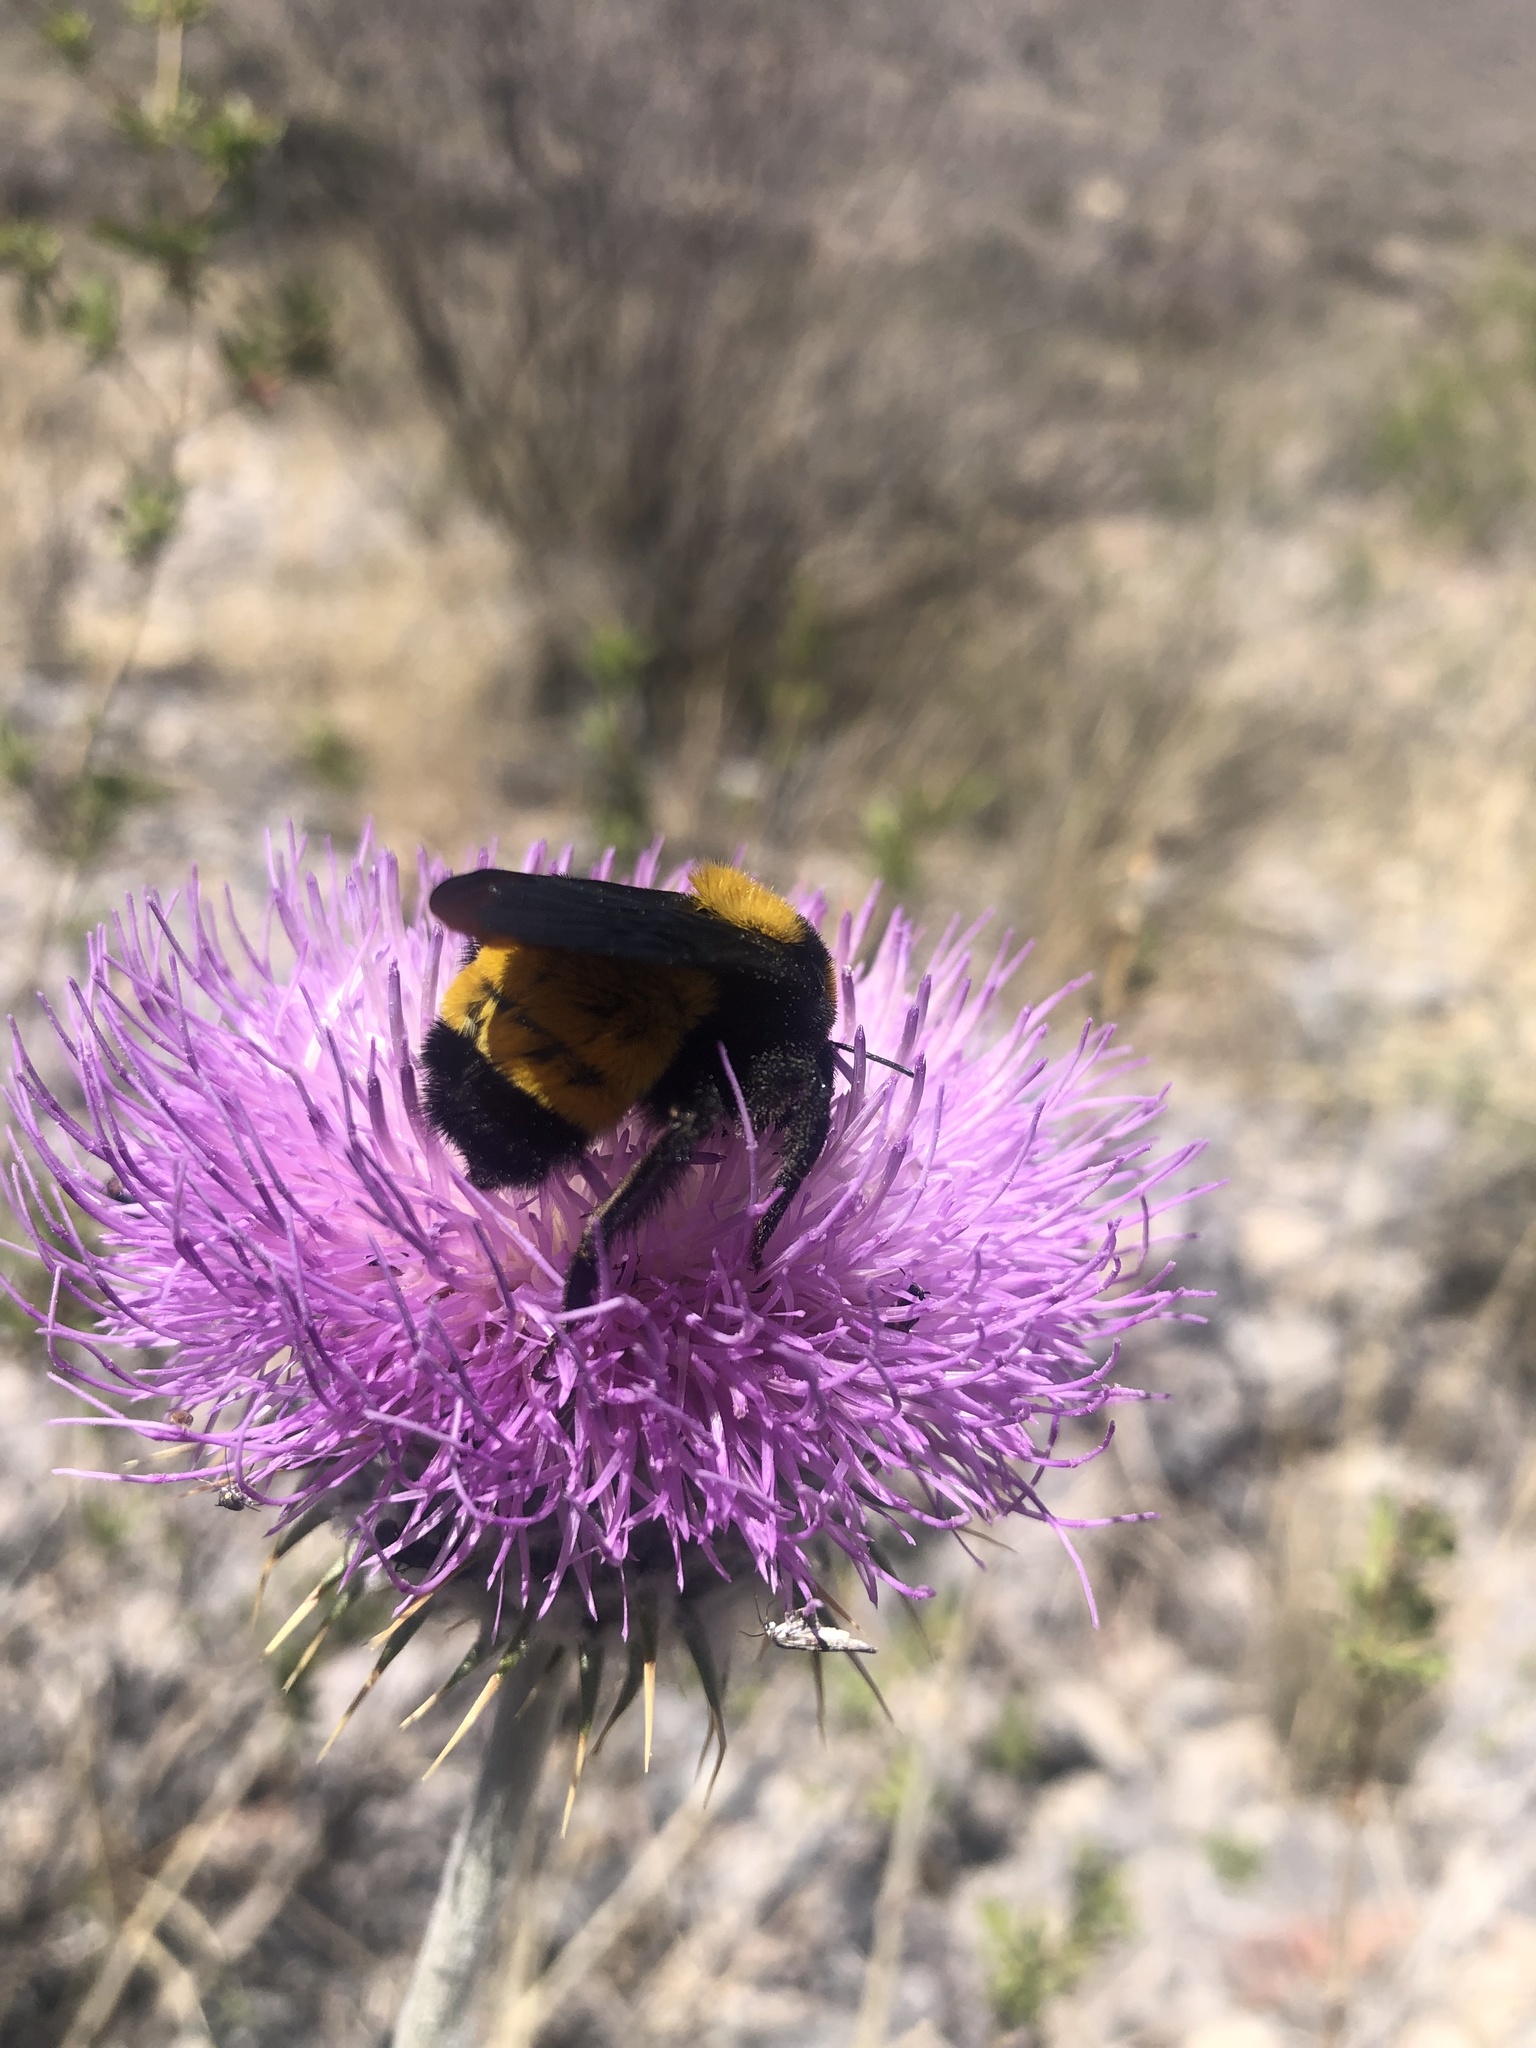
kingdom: Animalia
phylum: Arthropoda
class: Insecta
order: Hymenoptera
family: Apidae
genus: Bombus
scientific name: Bombus sonorus
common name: Sonoran bumble bee
